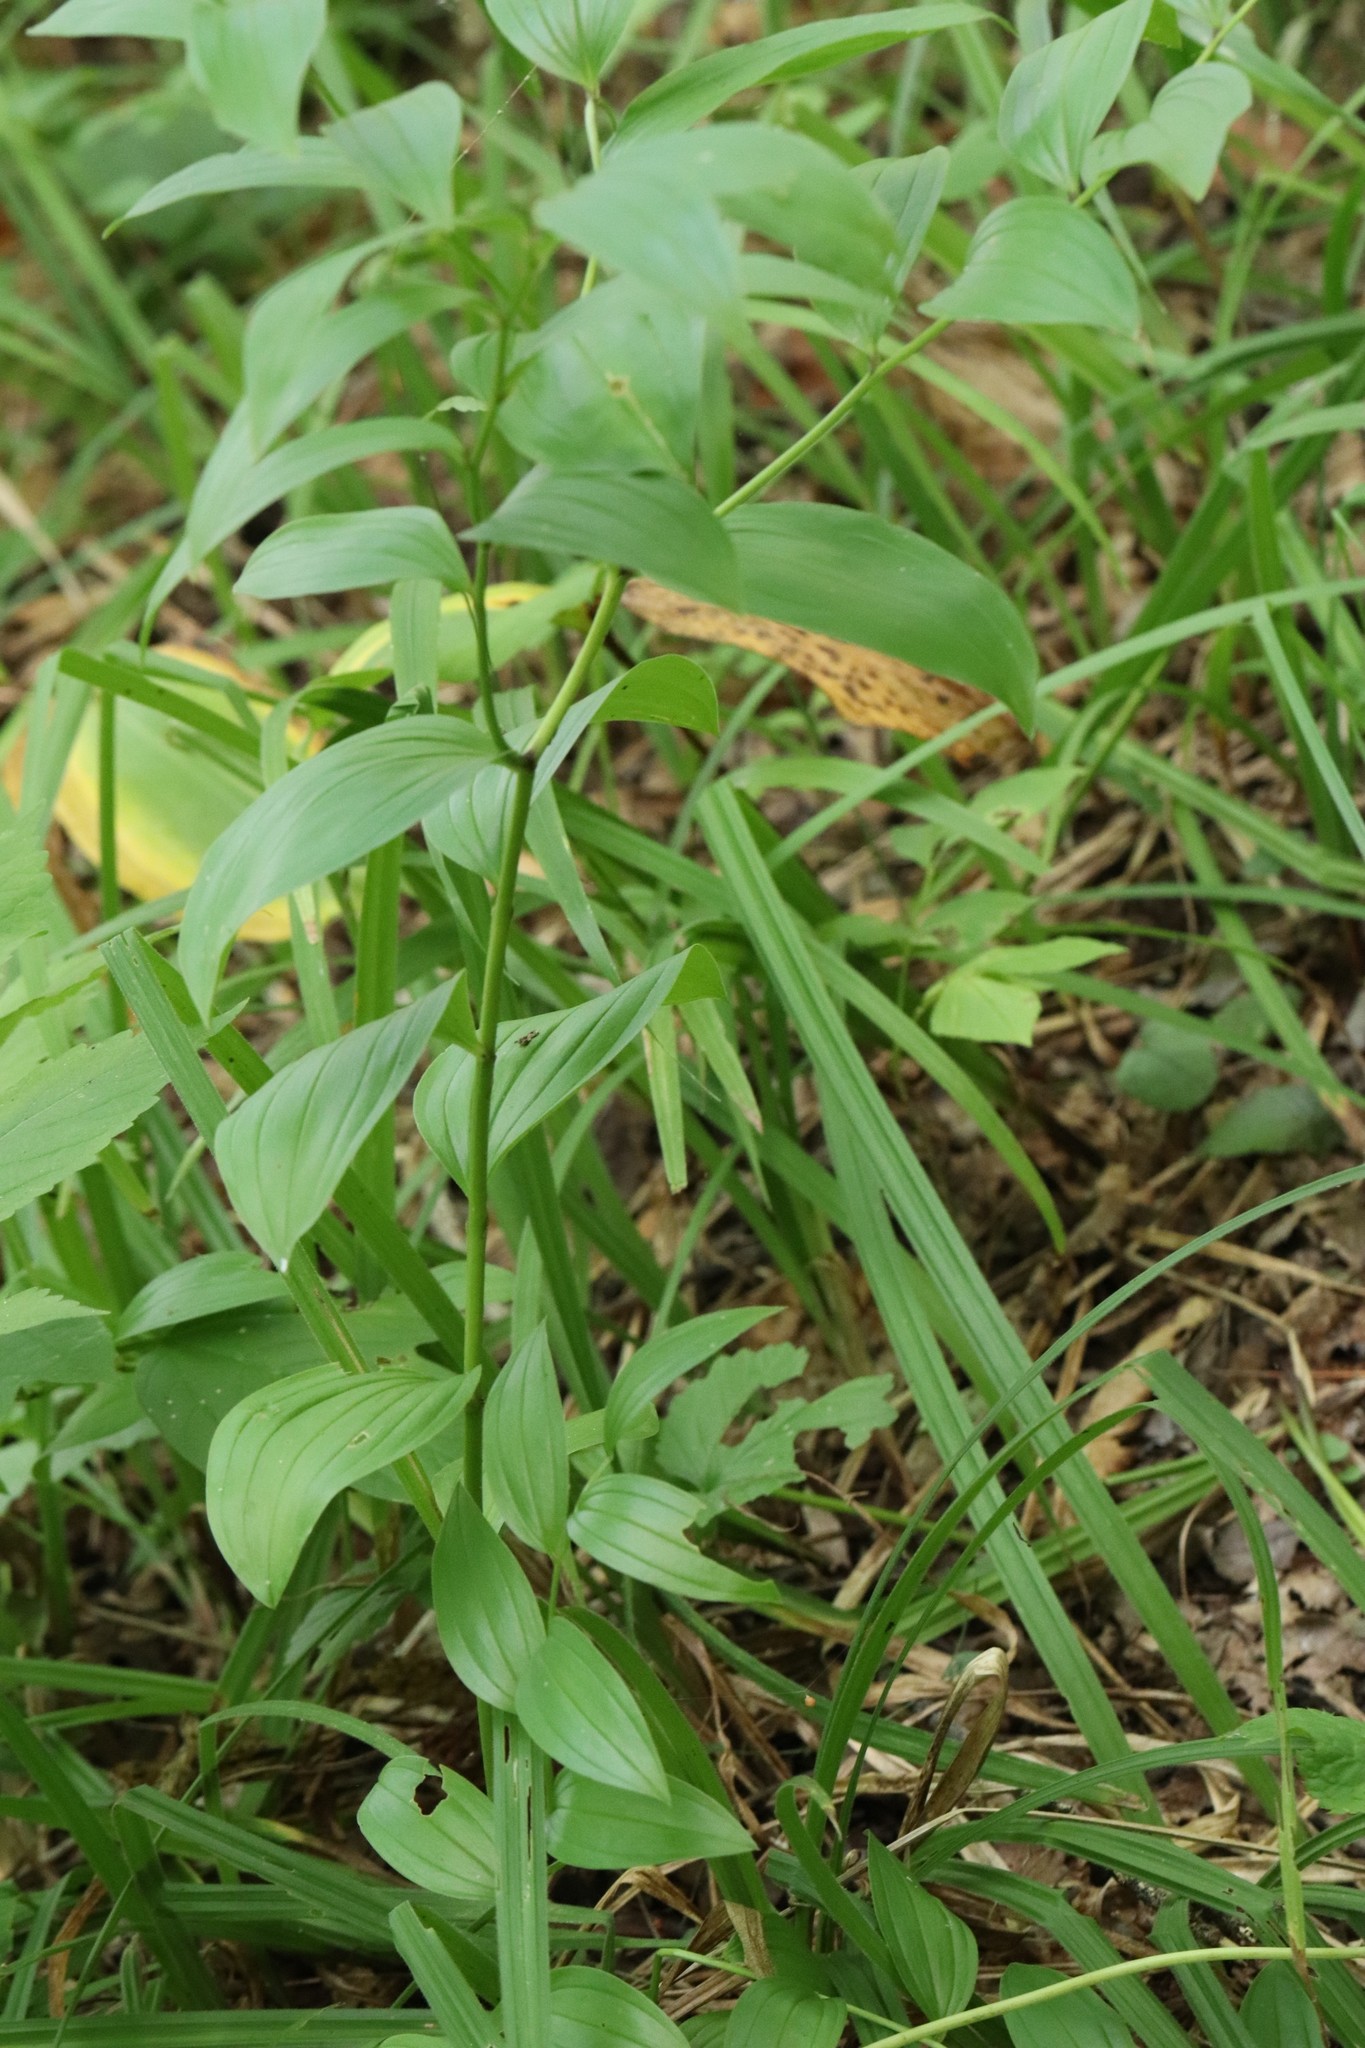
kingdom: Plantae
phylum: Tracheophyta
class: Liliopsida
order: Liliales
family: Colchicaceae
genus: Disporum
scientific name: Disporum viridescens
